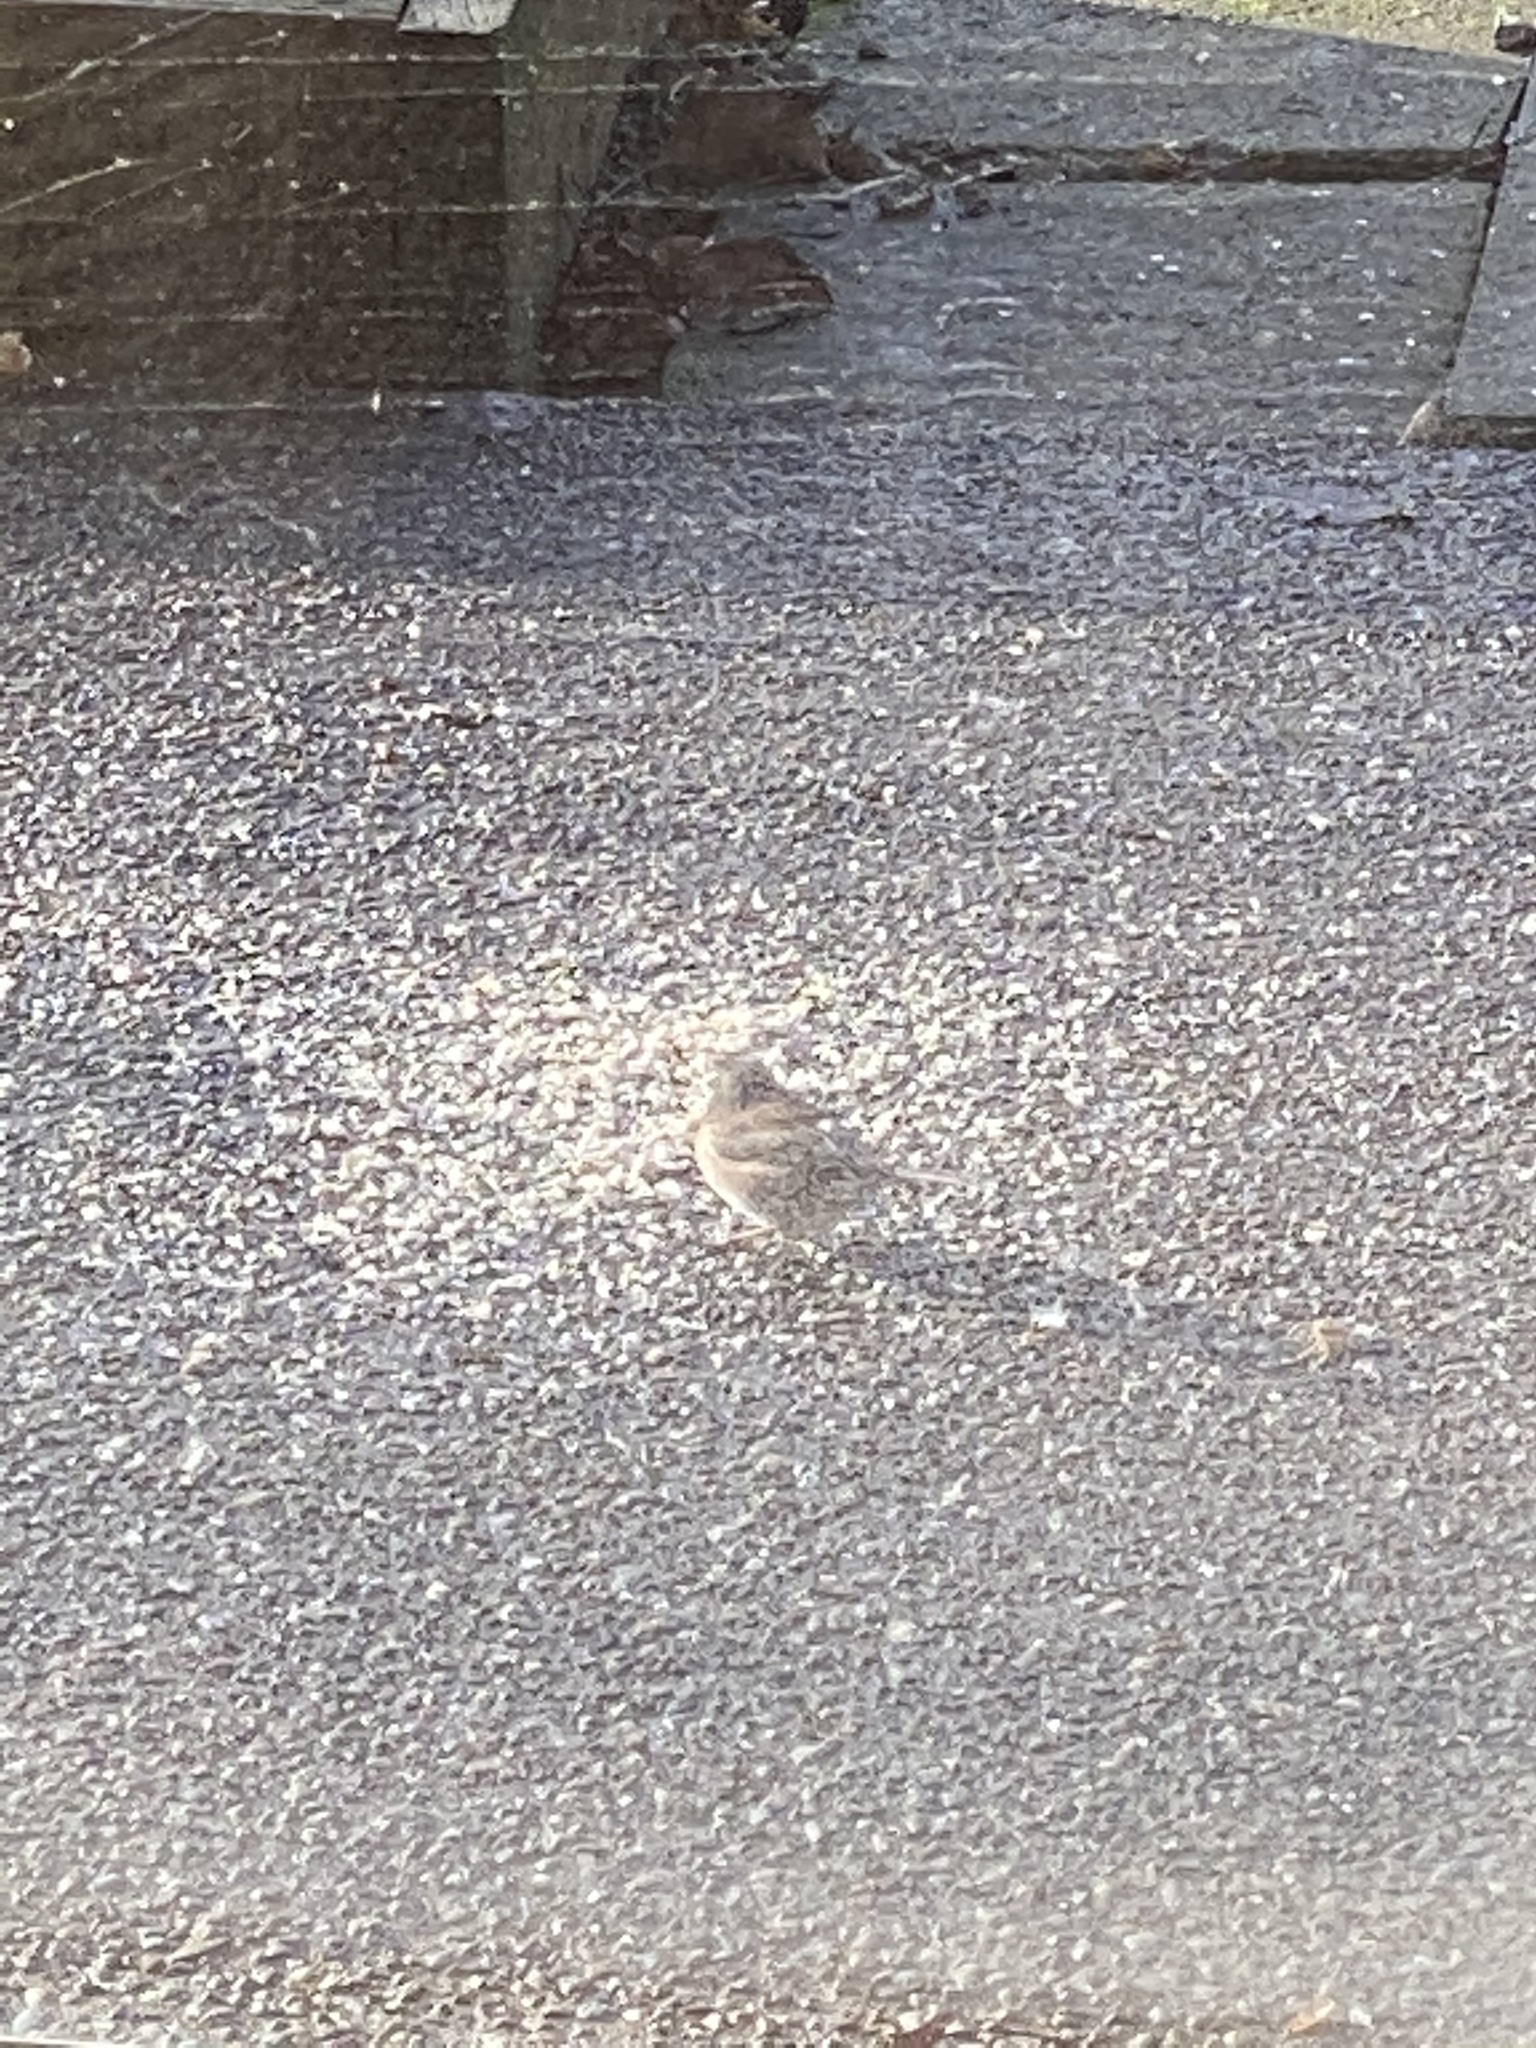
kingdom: Animalia
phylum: Chordata
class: Aves
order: Passeriformes
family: Passerellidae
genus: Junco
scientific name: Junco hyemalis
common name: Dark-eyed junco
